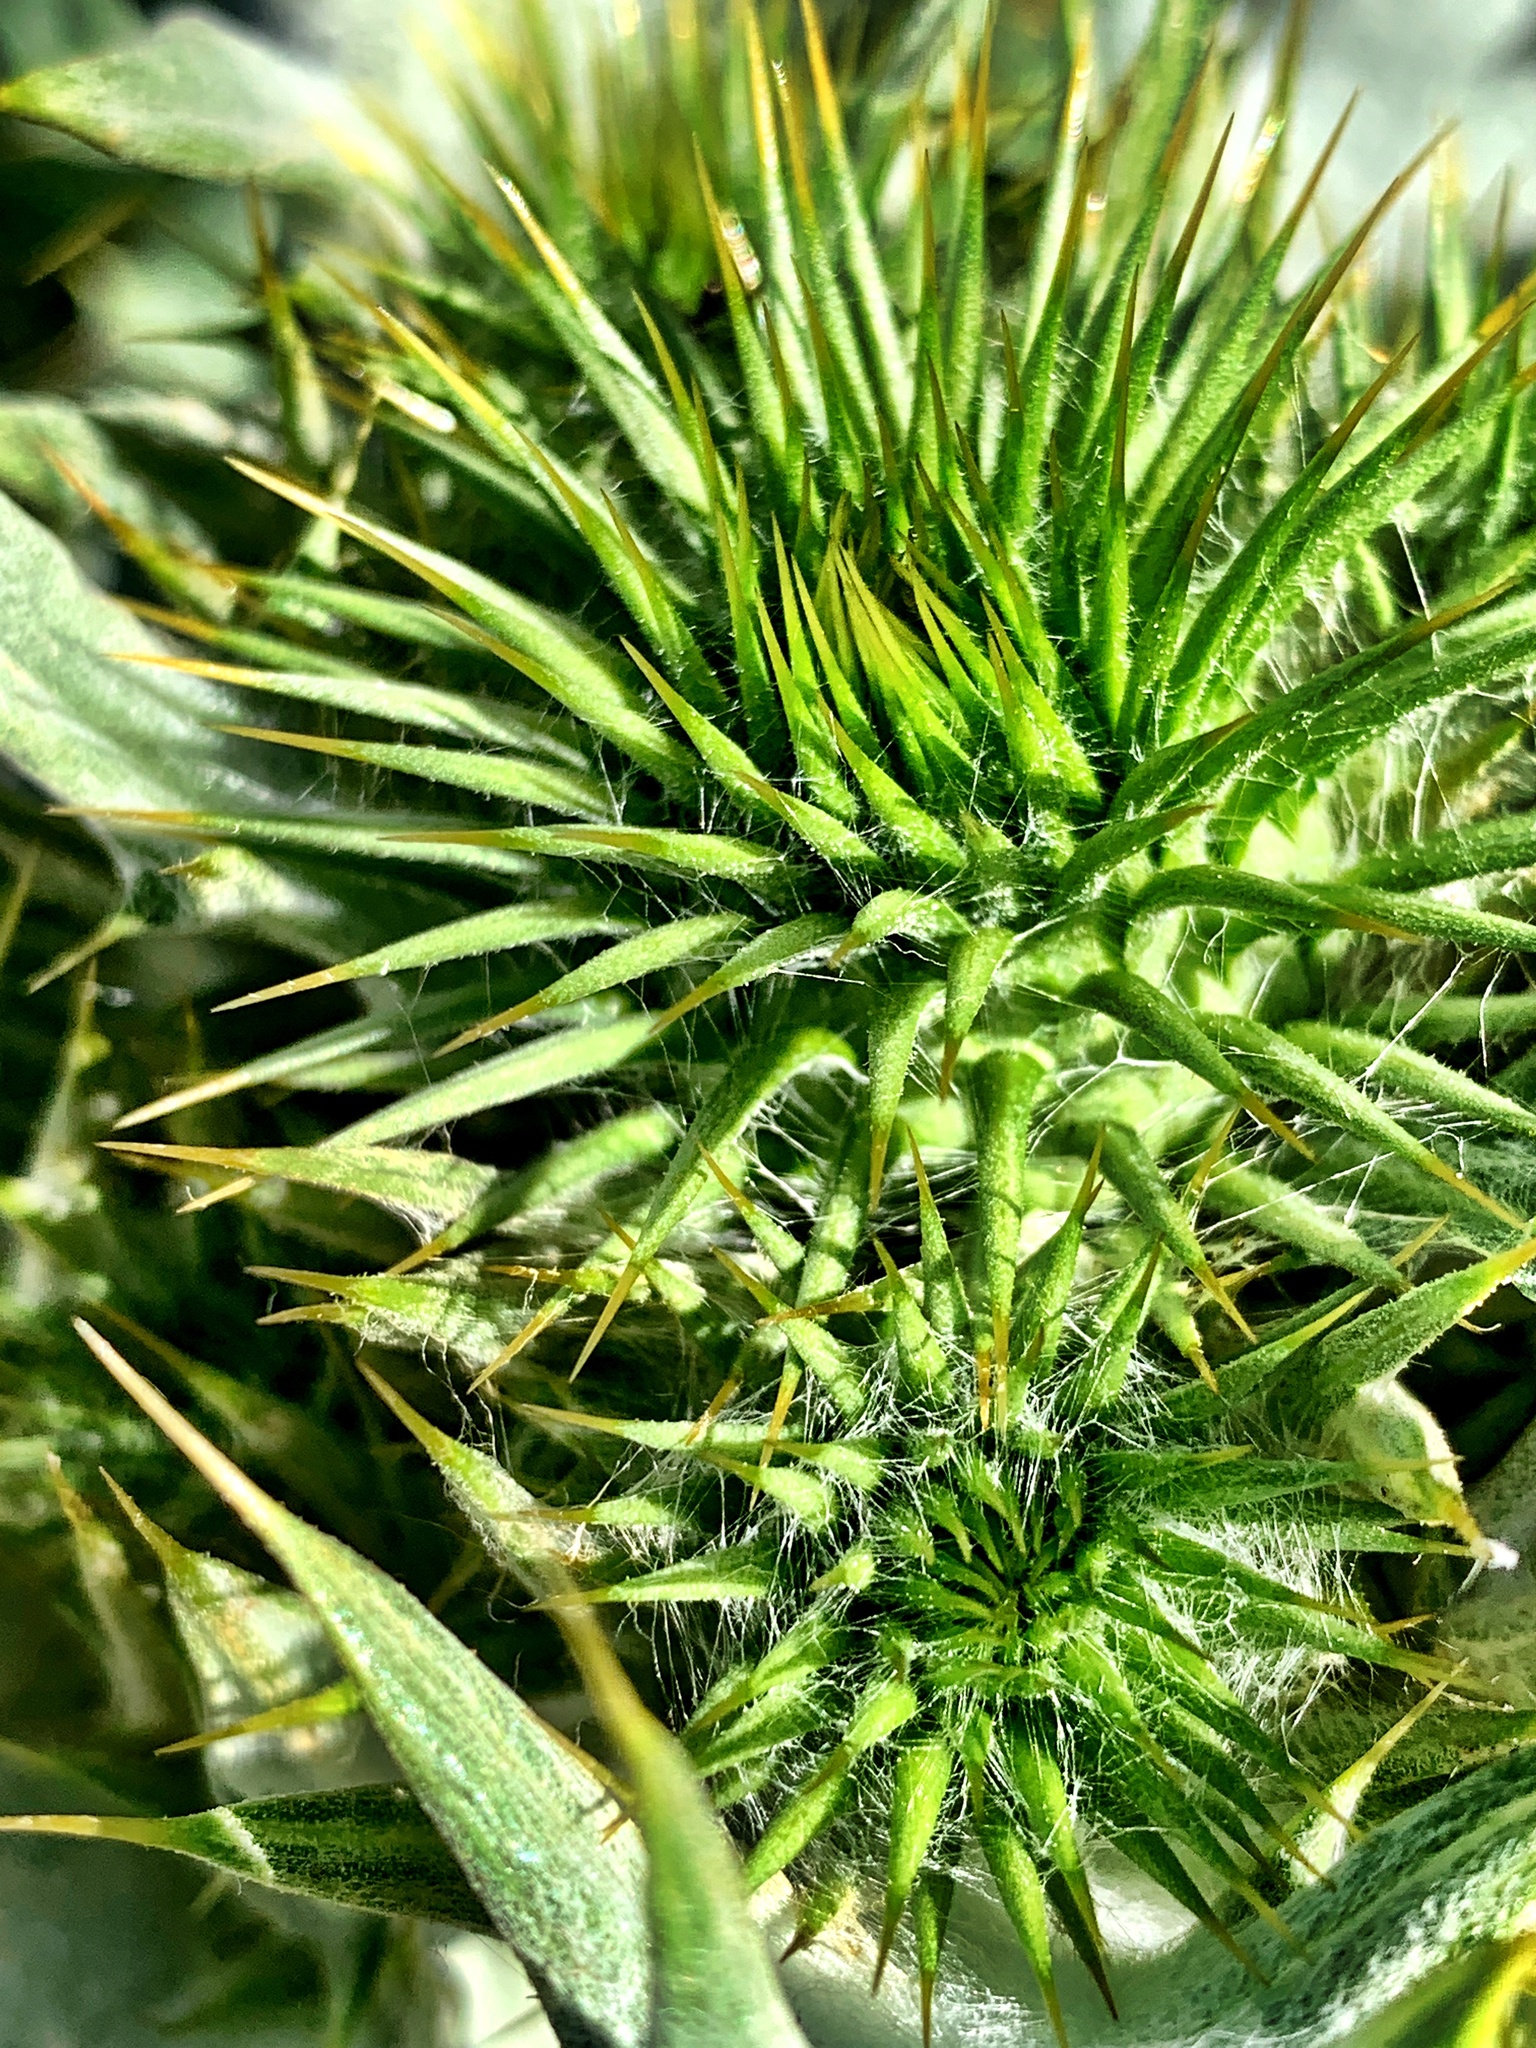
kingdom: Plantae
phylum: Tracheophyta
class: Magnoliopsida
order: Asterales
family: Asteraceae
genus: Onopordum
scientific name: Onopordum acanthium
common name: Scotch thistle
